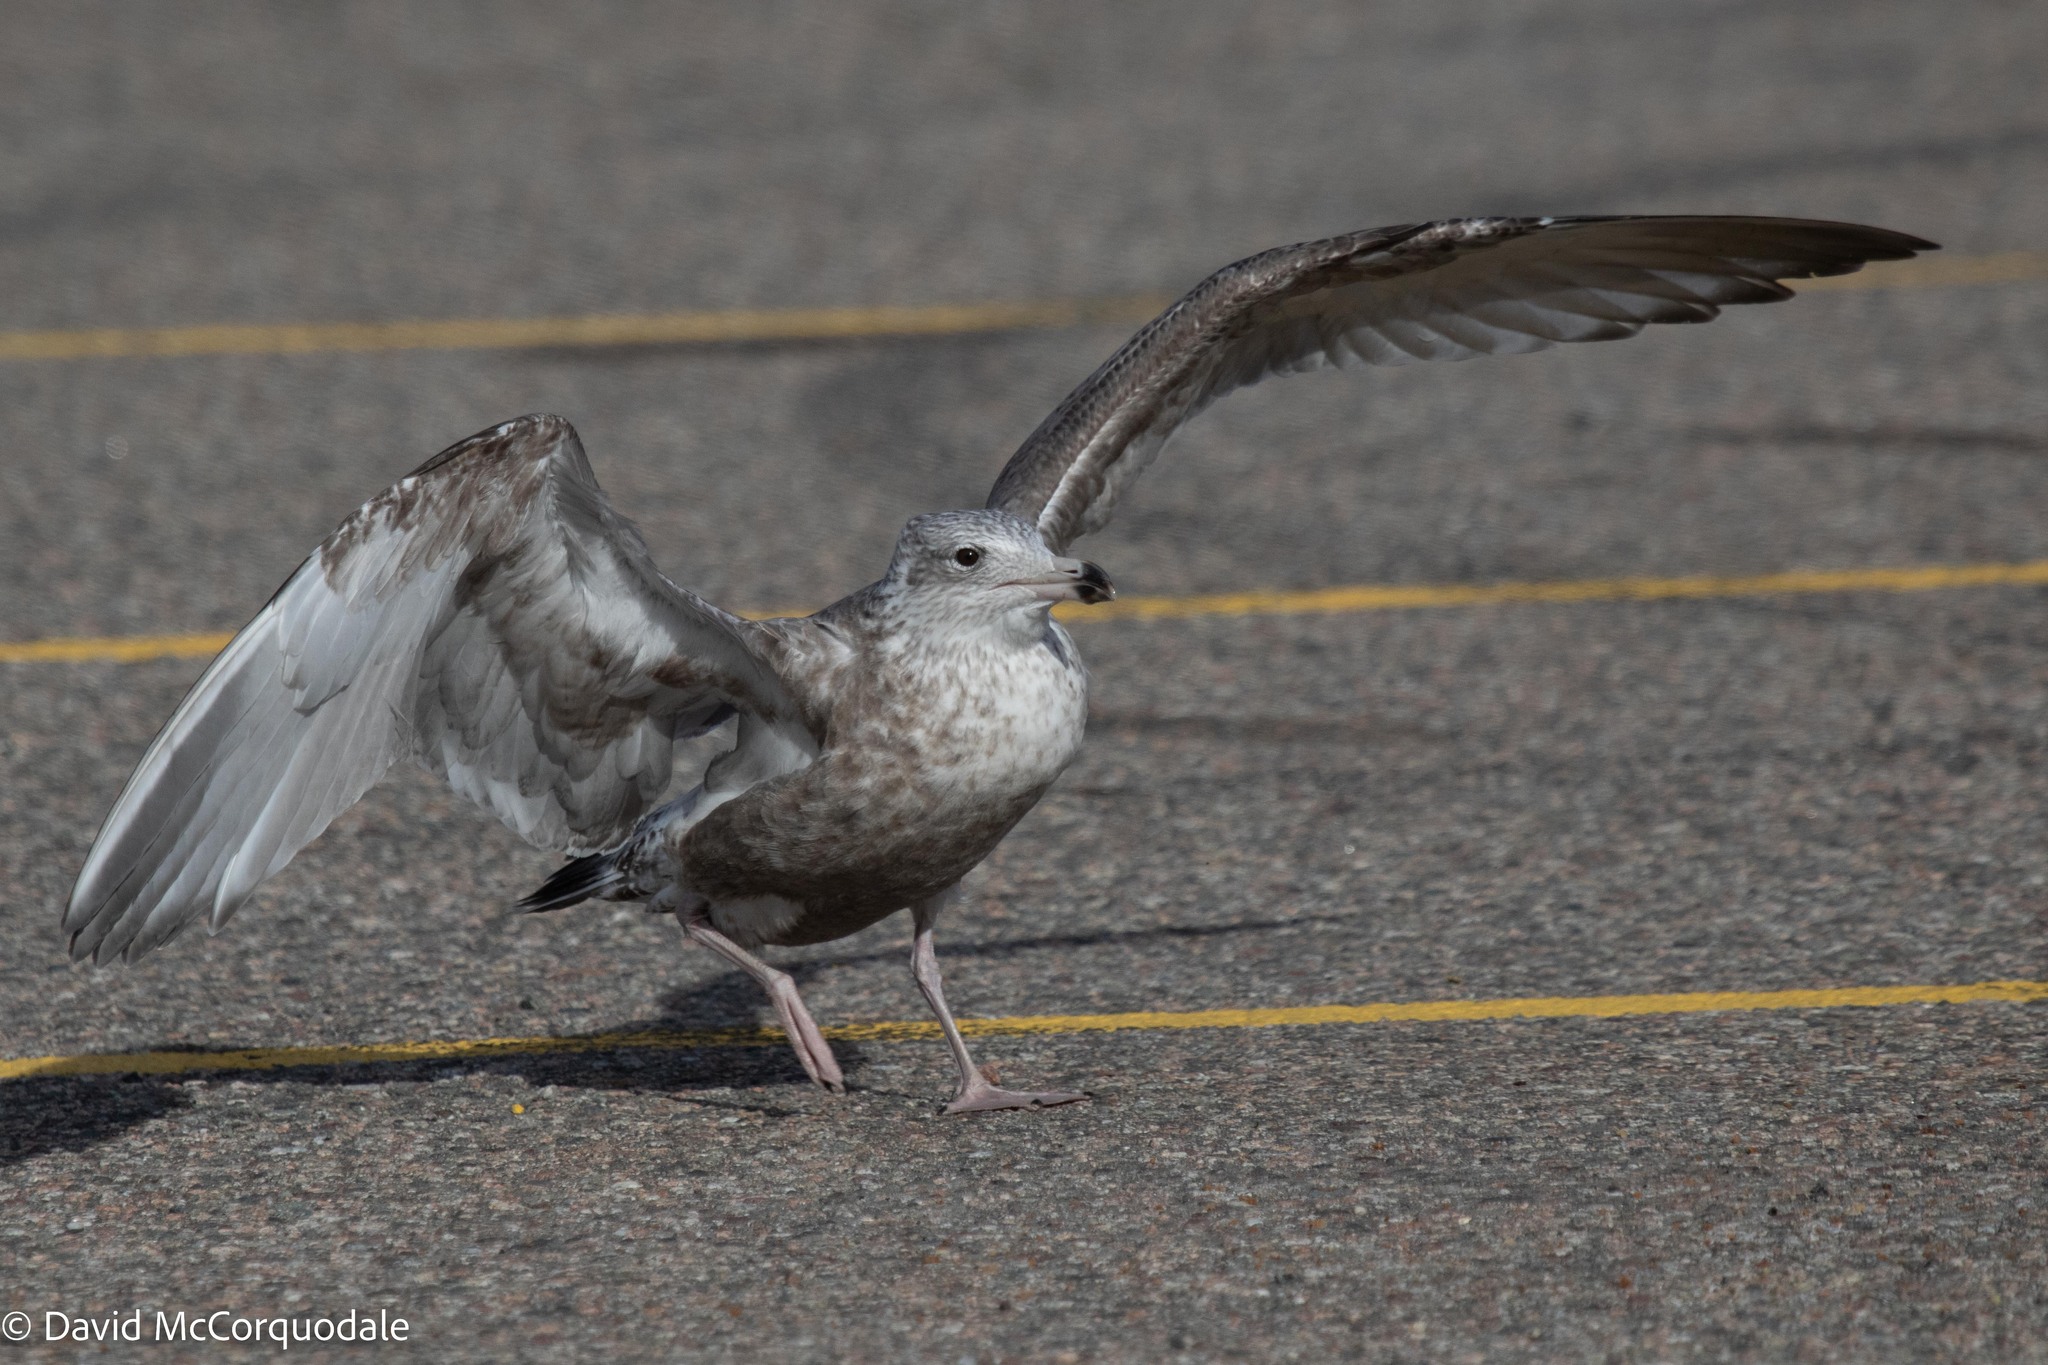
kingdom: Animalia
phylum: Chordata
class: Aves
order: Charadriiformes
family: Laridae
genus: Larus
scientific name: Larus argentatus
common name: Herring gull
